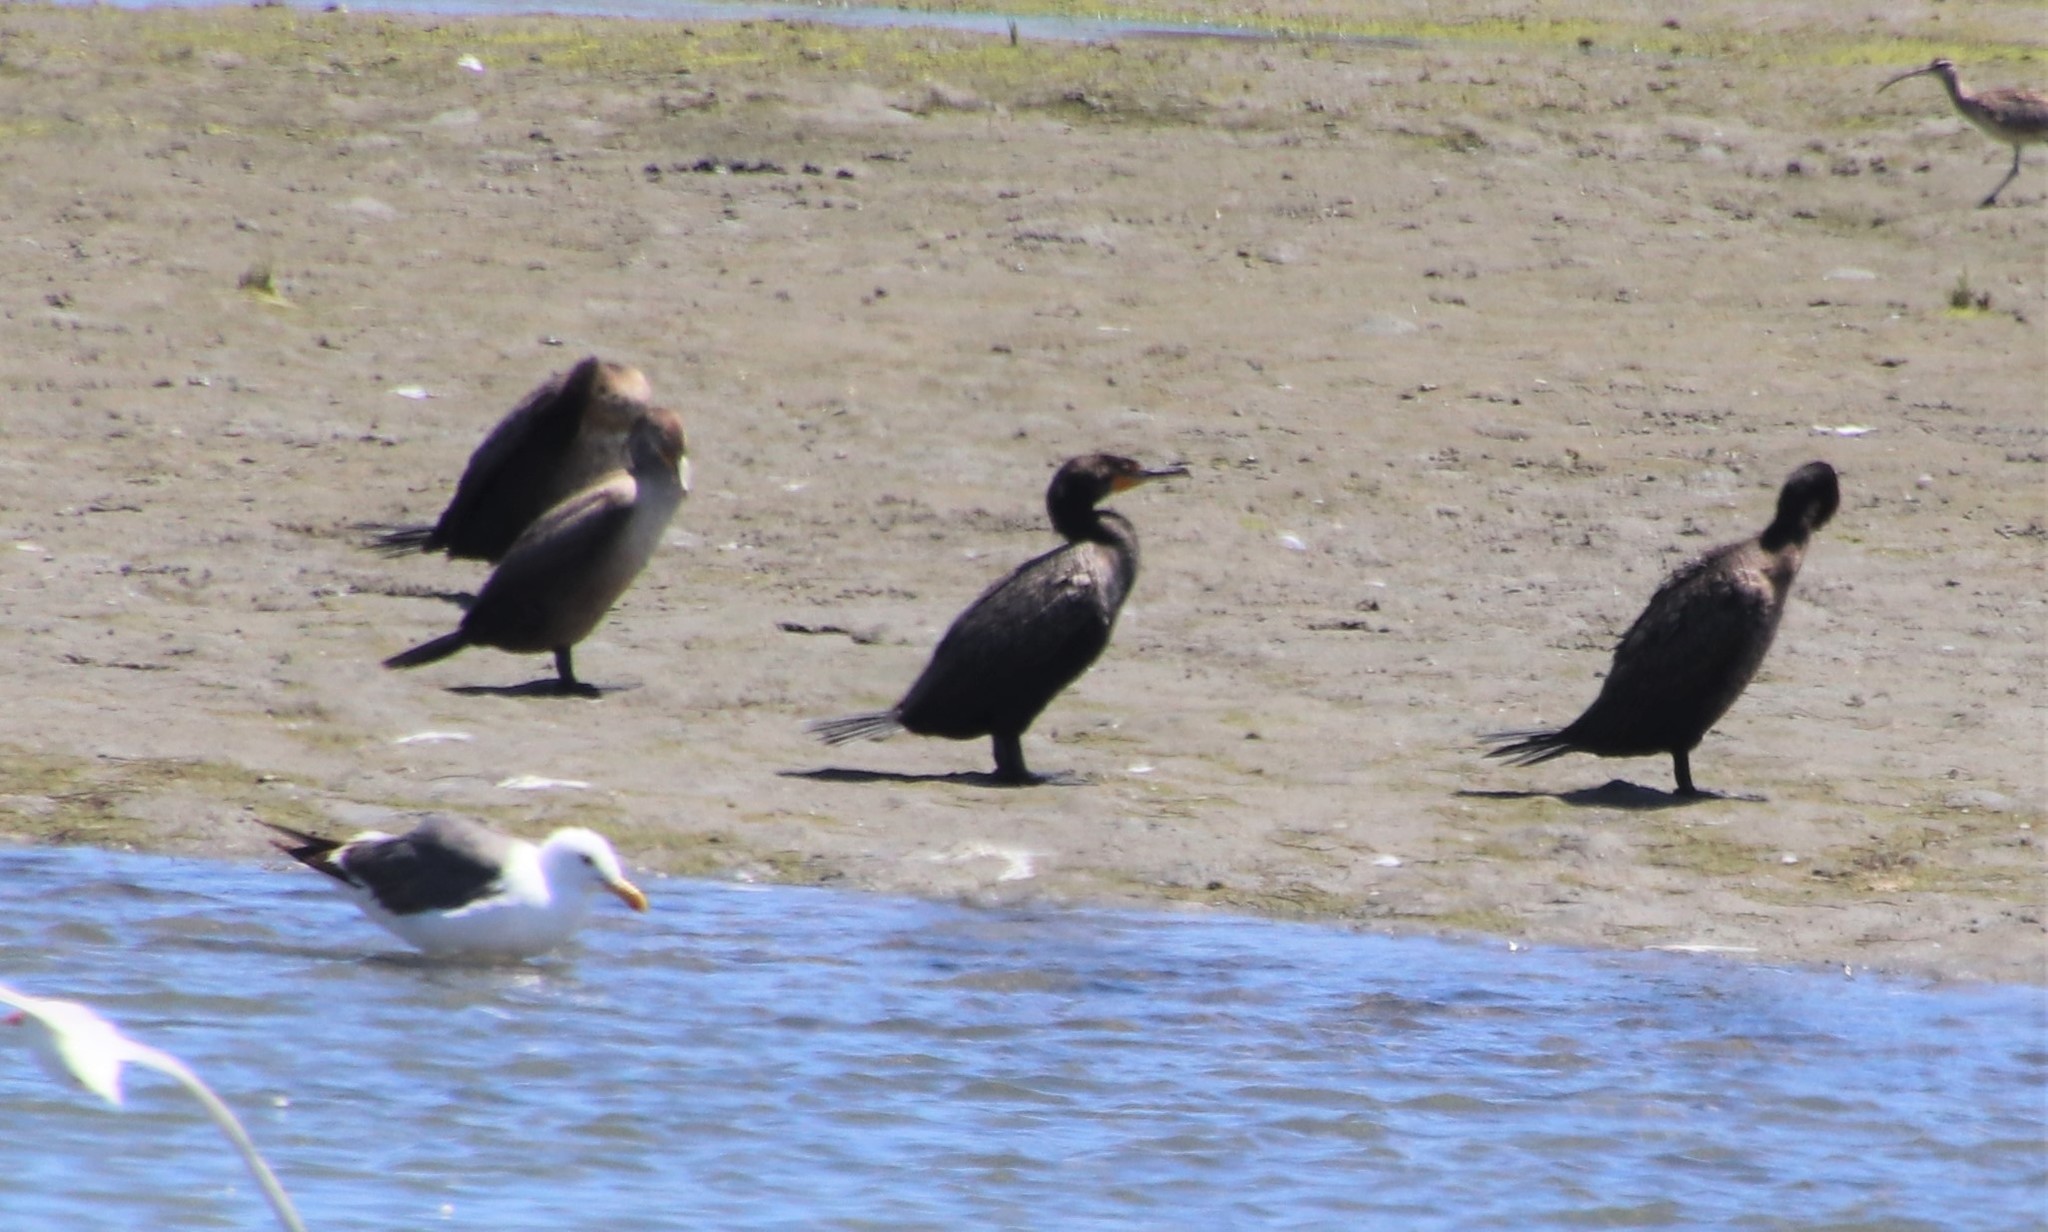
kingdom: Animalia
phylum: Chordata
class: Aves
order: Suliformes
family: Phalacrocoracidae
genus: Phalacrocorax
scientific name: Phalacrocorax auritus
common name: Double-crested cormorant
